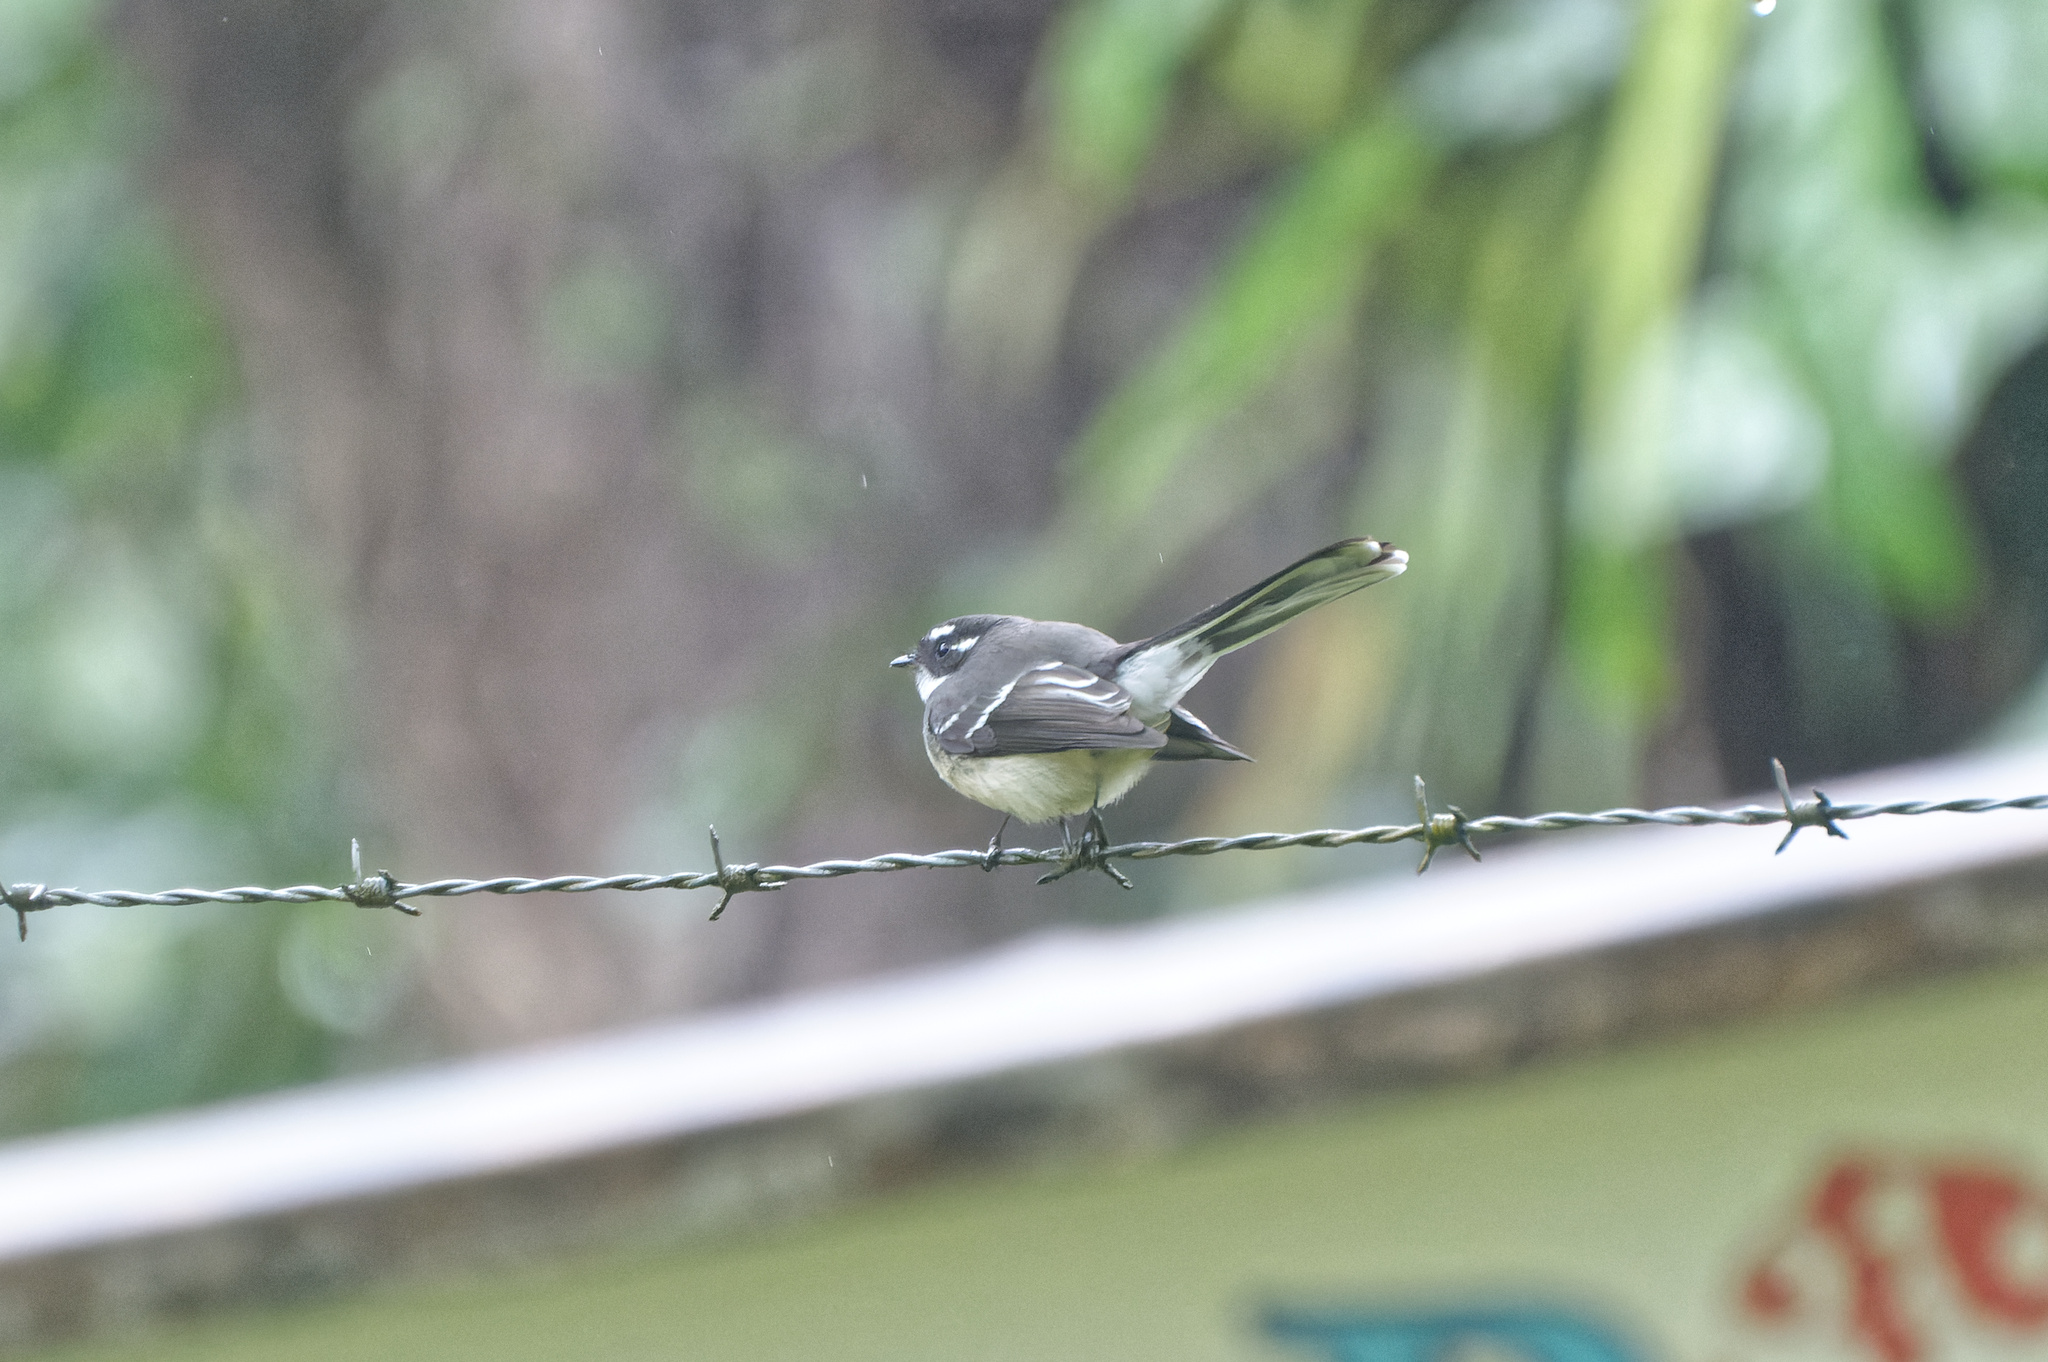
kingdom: Animalia
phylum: Chordata
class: Aves
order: Passeriformes
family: Rhipiduridae
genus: Rhipidura
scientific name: Rhipidura albiscapa
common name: Grey fantail
